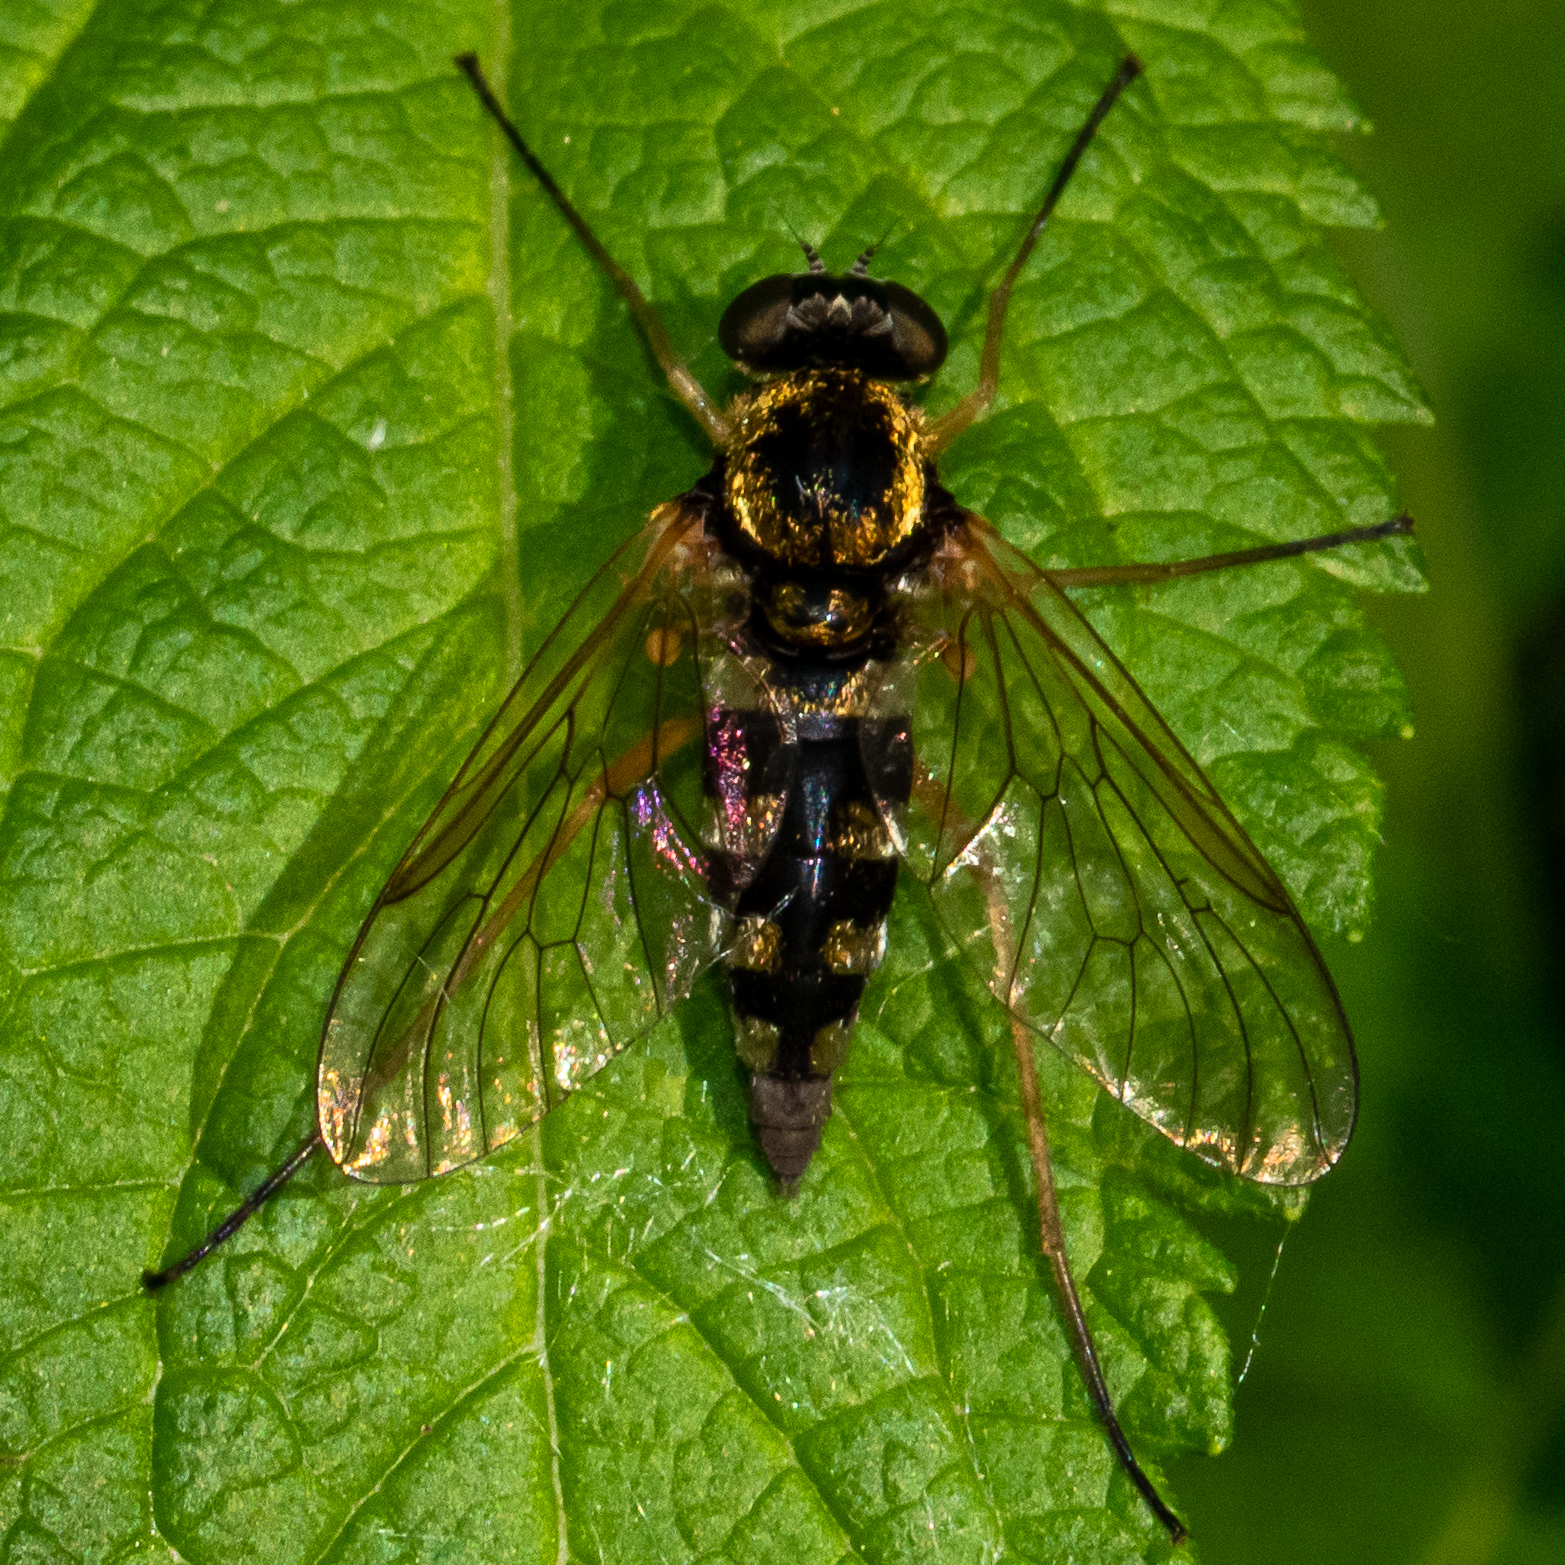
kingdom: Animalia
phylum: Arthropoda
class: Insecta
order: Diptera
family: Rhagionidae
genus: Chrysopilus
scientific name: Chrysopilus ornatus
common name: Ornate snipe fly
